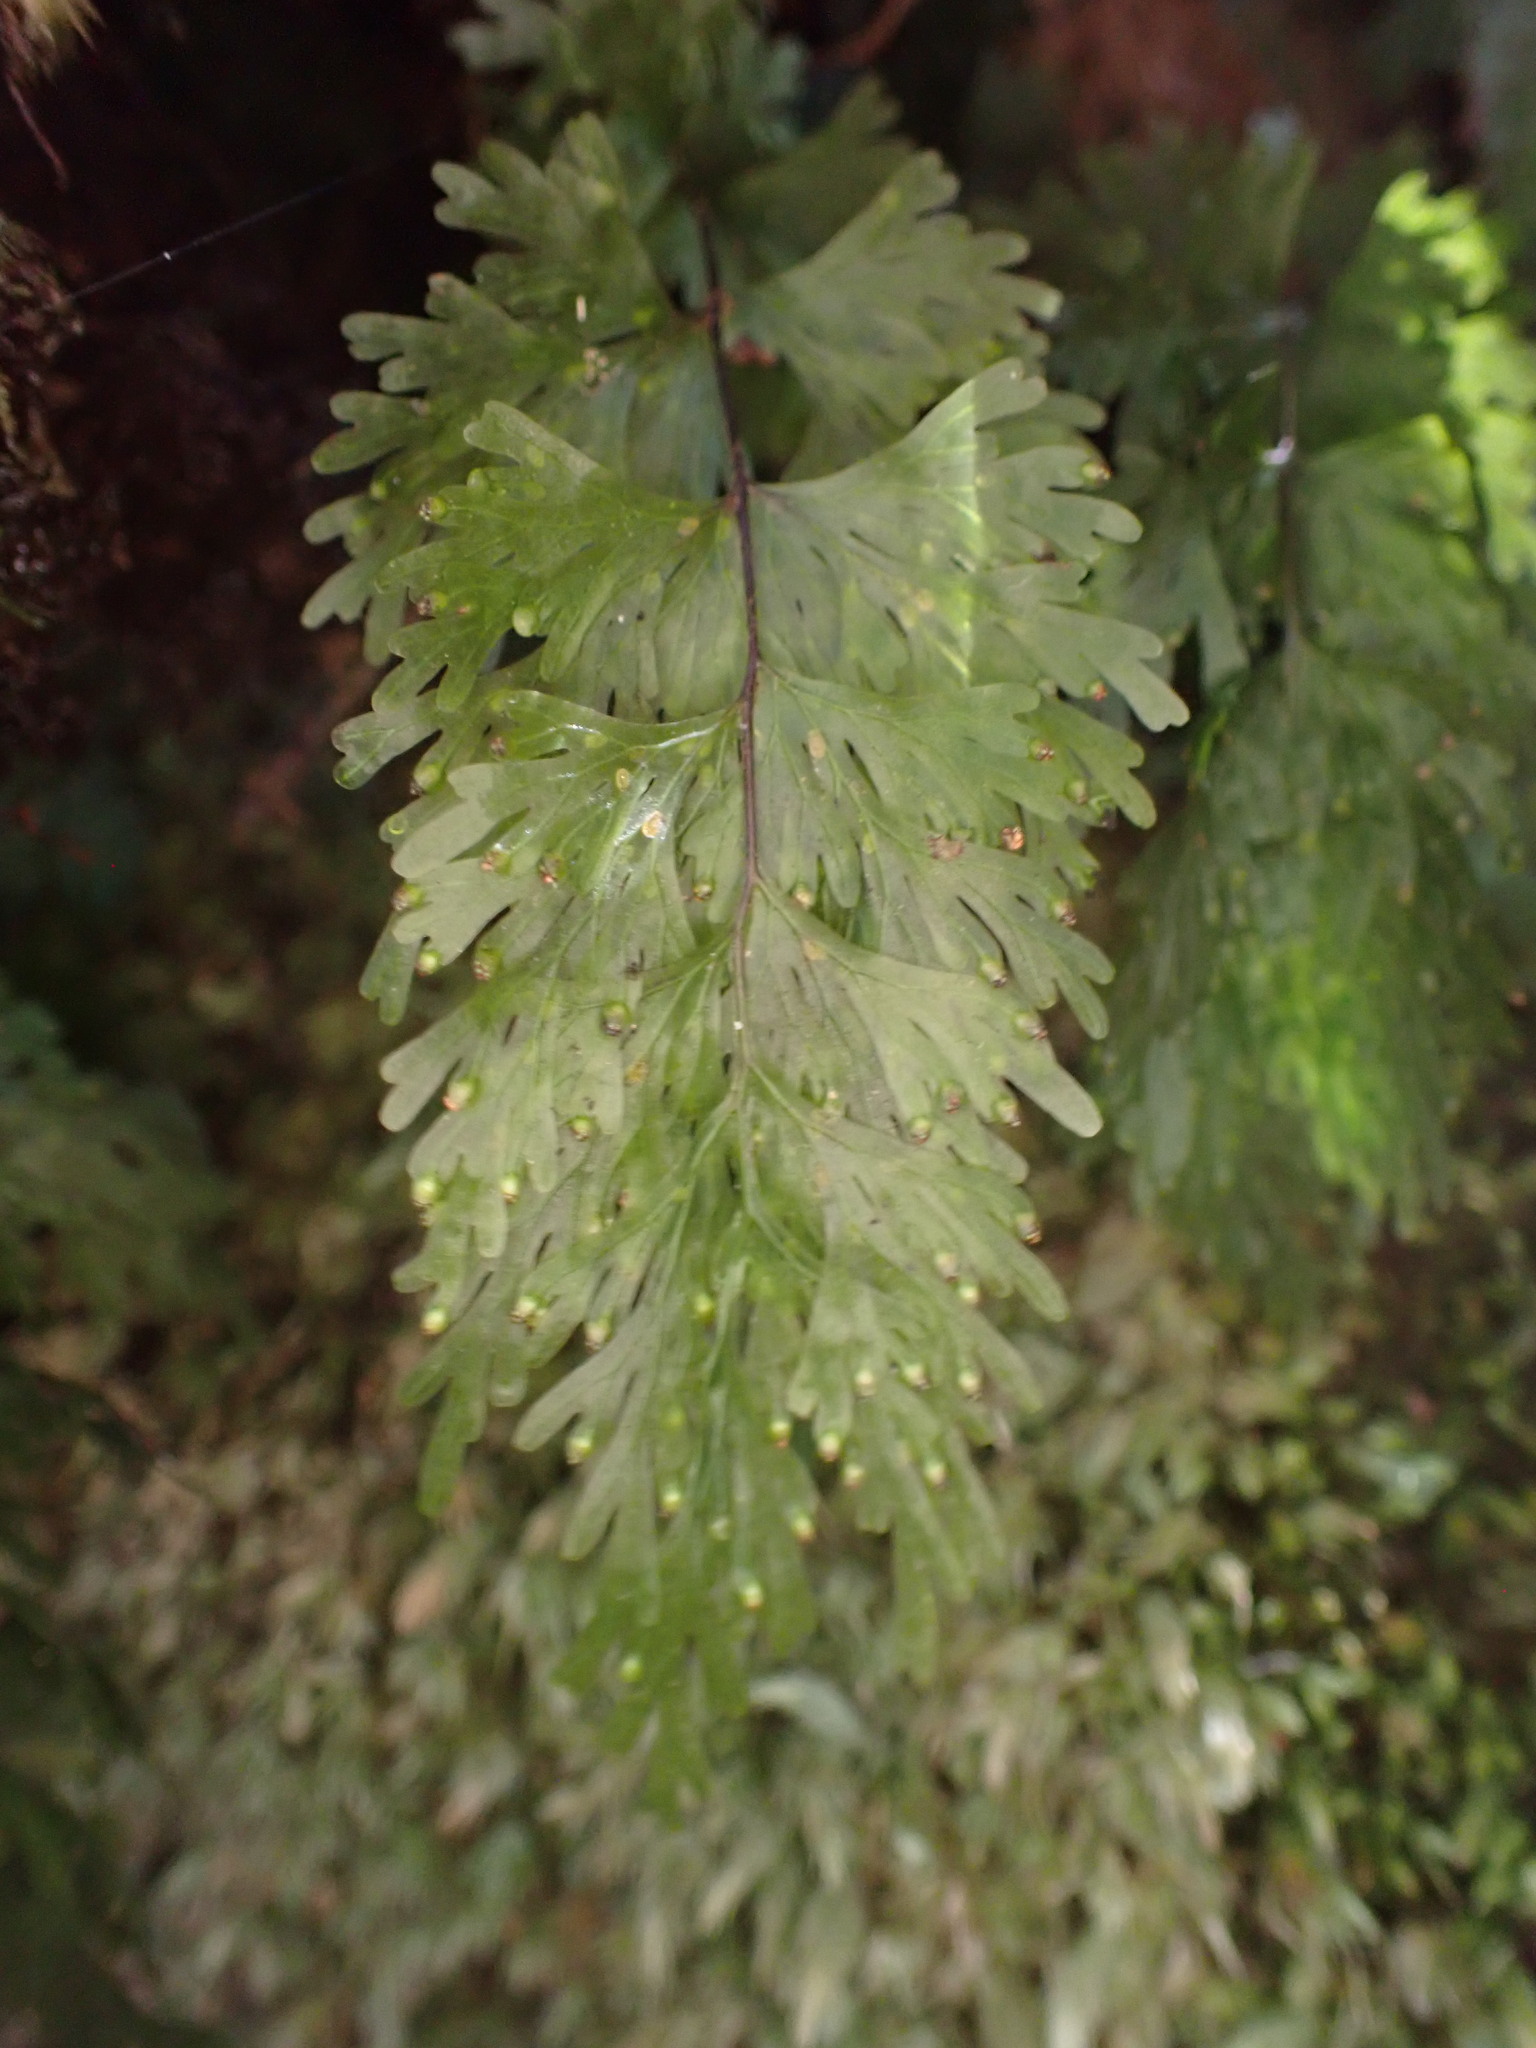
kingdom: Plantae
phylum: Tracheophyta
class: Polypodiopsida
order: Hymenophyllales
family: Hymenophyllaceae
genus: Hymenophyllum
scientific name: Hymenophyllum flabellatum
